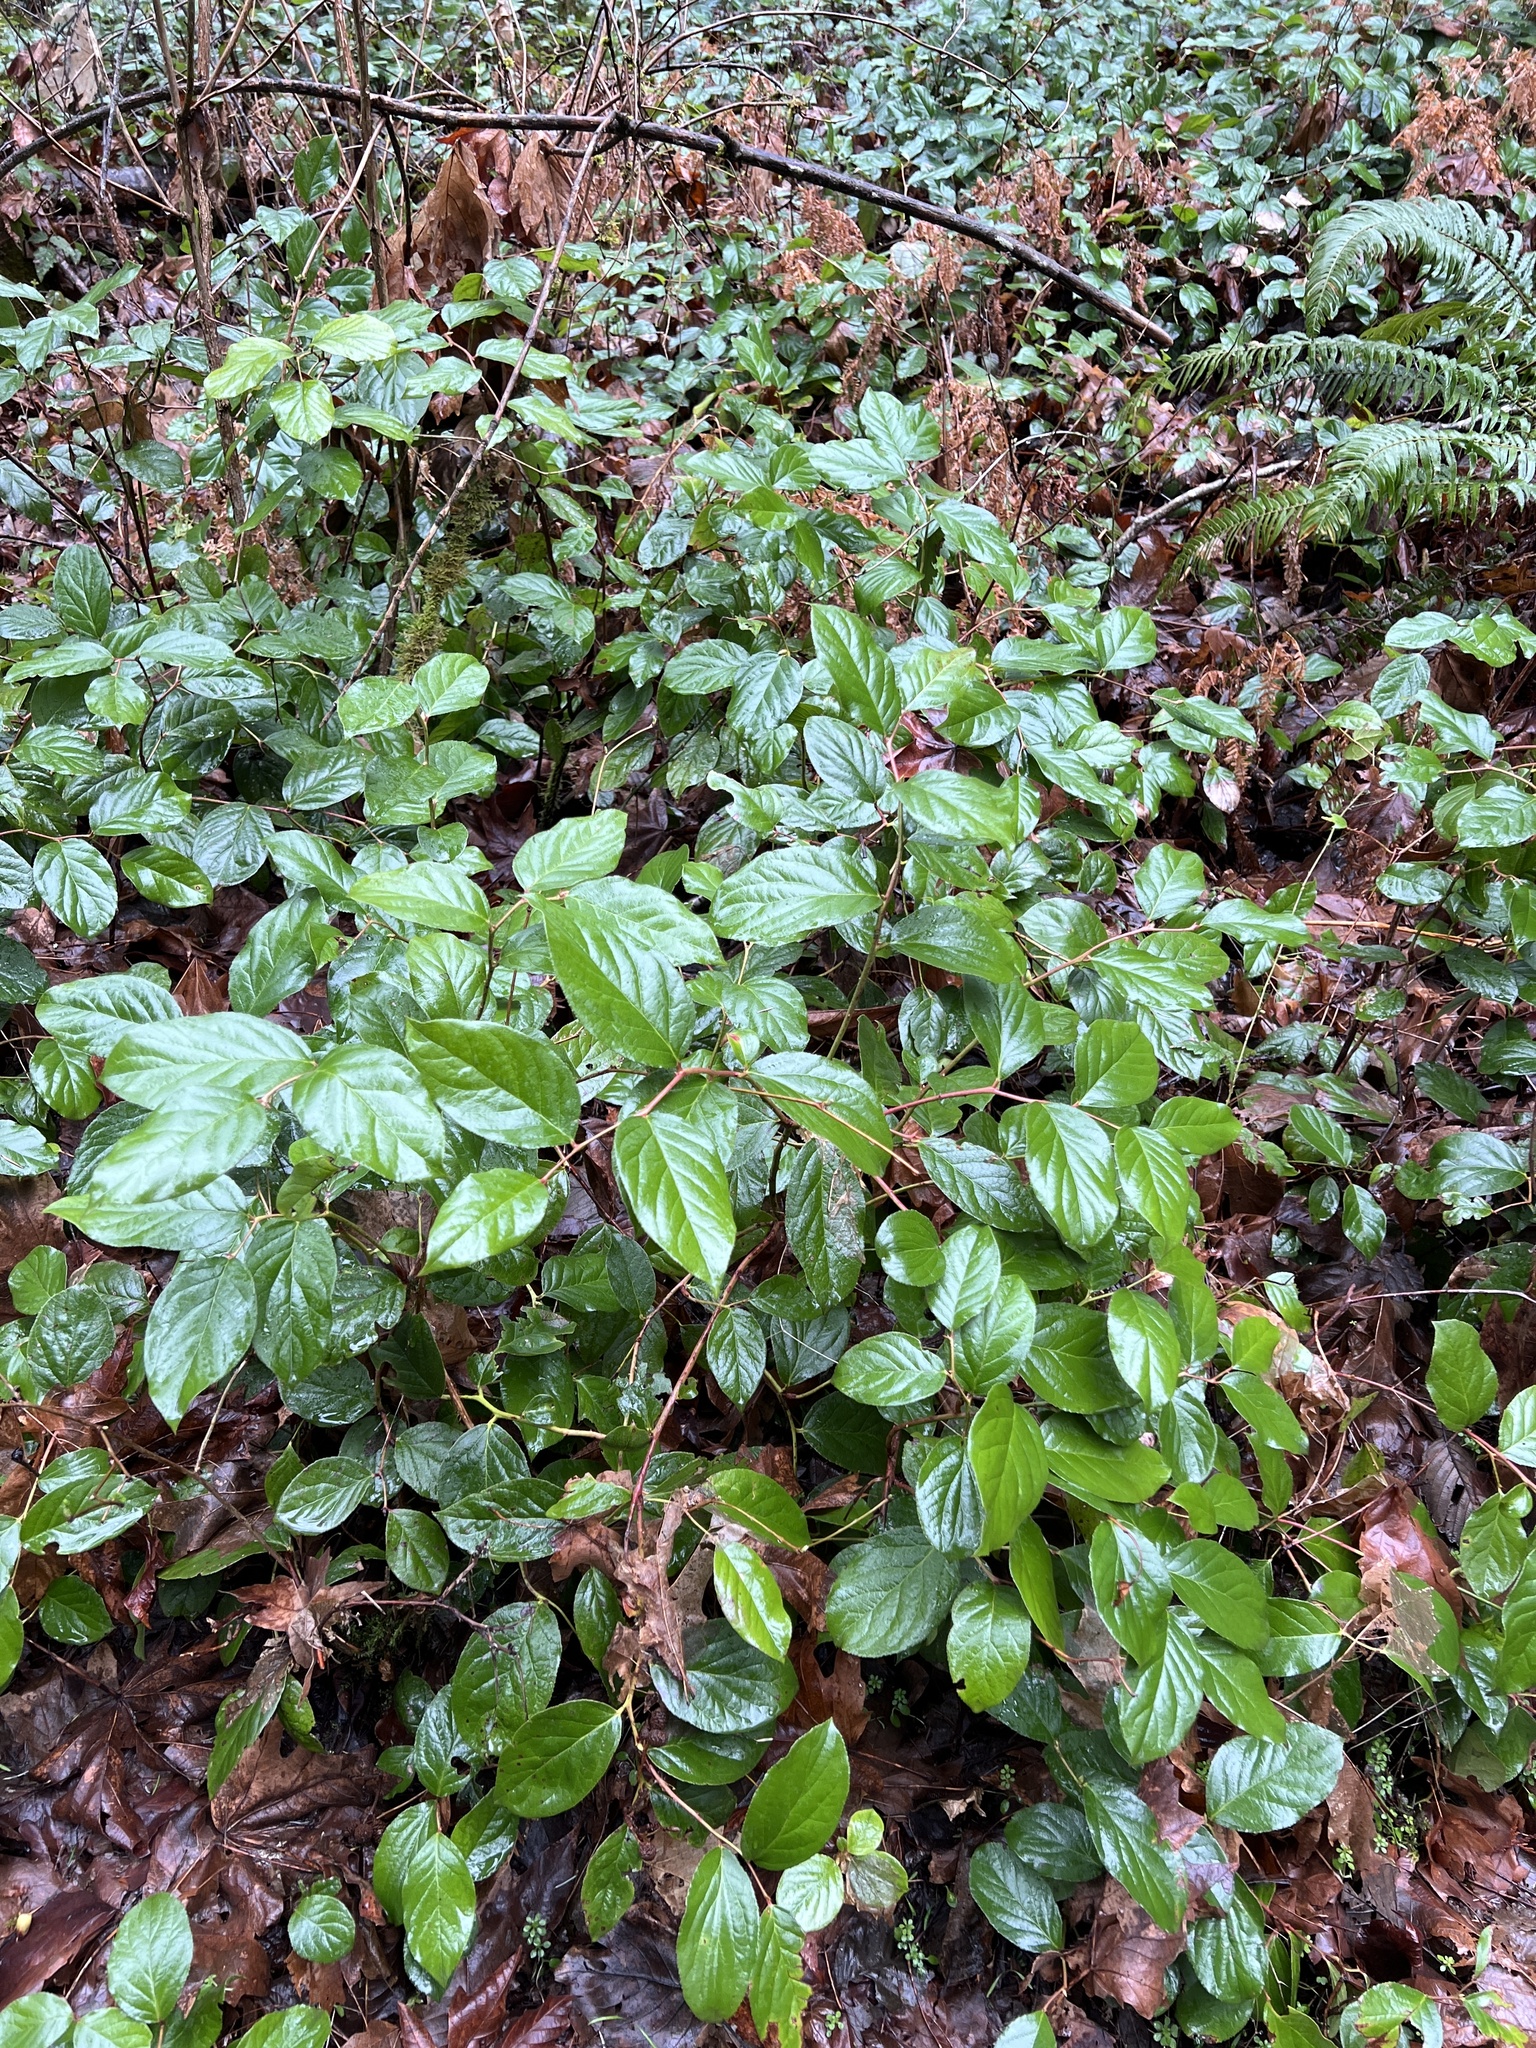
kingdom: Plantae
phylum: Tracheophyta
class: Magnoliopsida
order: Ericales
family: Ericaceae
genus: Gaultheria
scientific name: Gaultheria shallon
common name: Shallon
